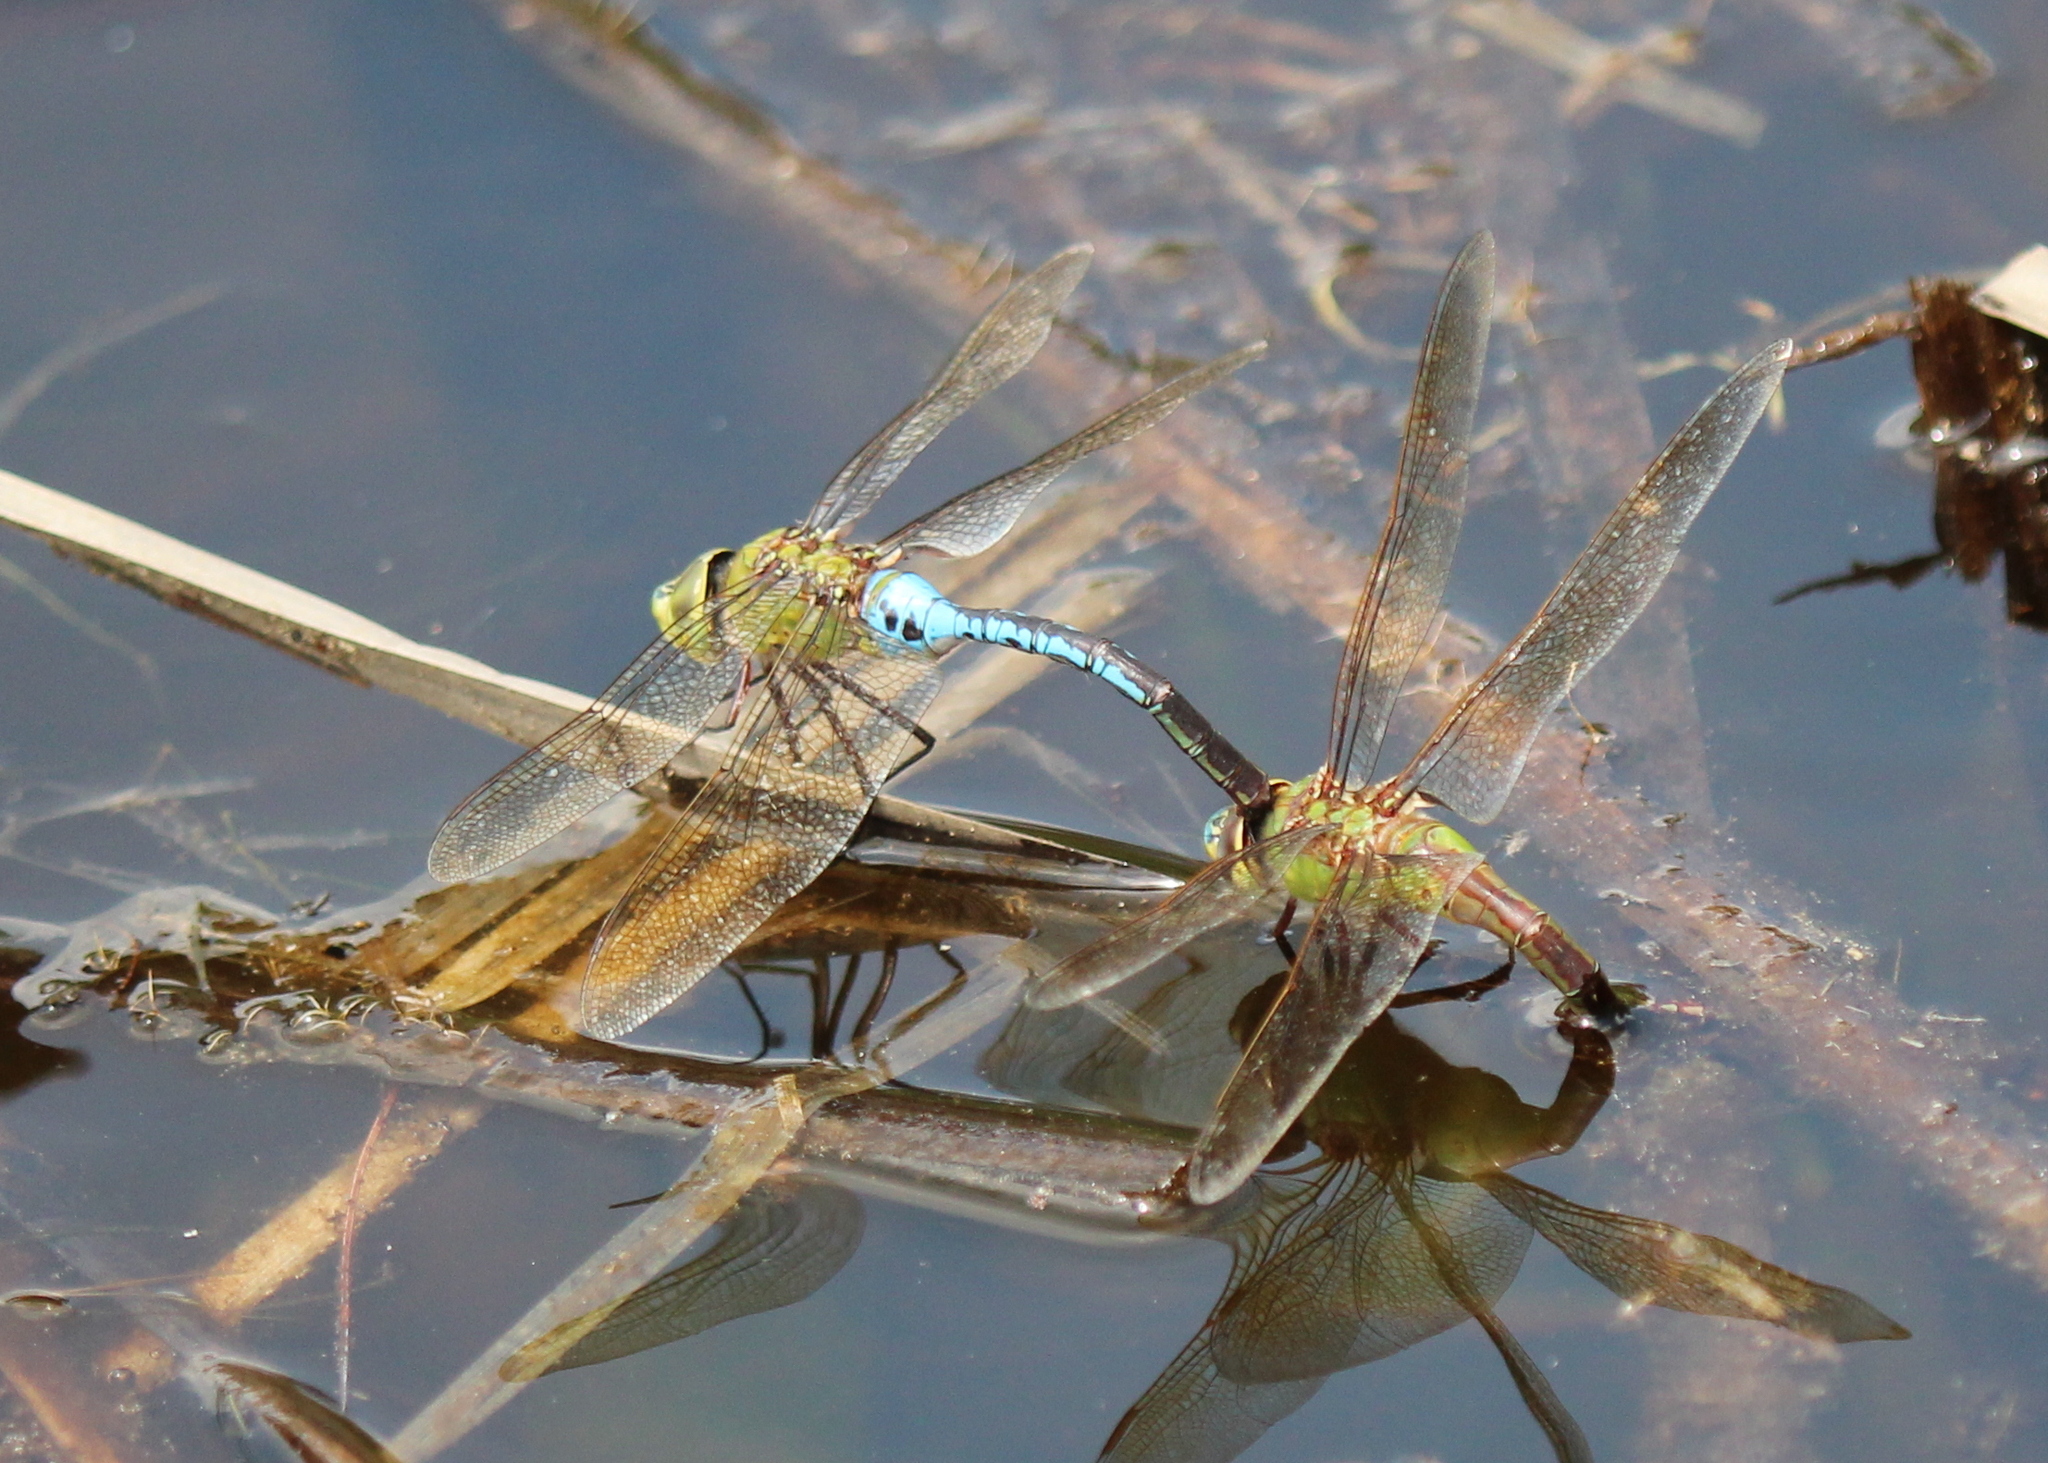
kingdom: Animalia
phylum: Arthropoda
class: Insecta
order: Odonata
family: Aeshnidae
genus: Anax
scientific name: Anax junius
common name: Common green darner
